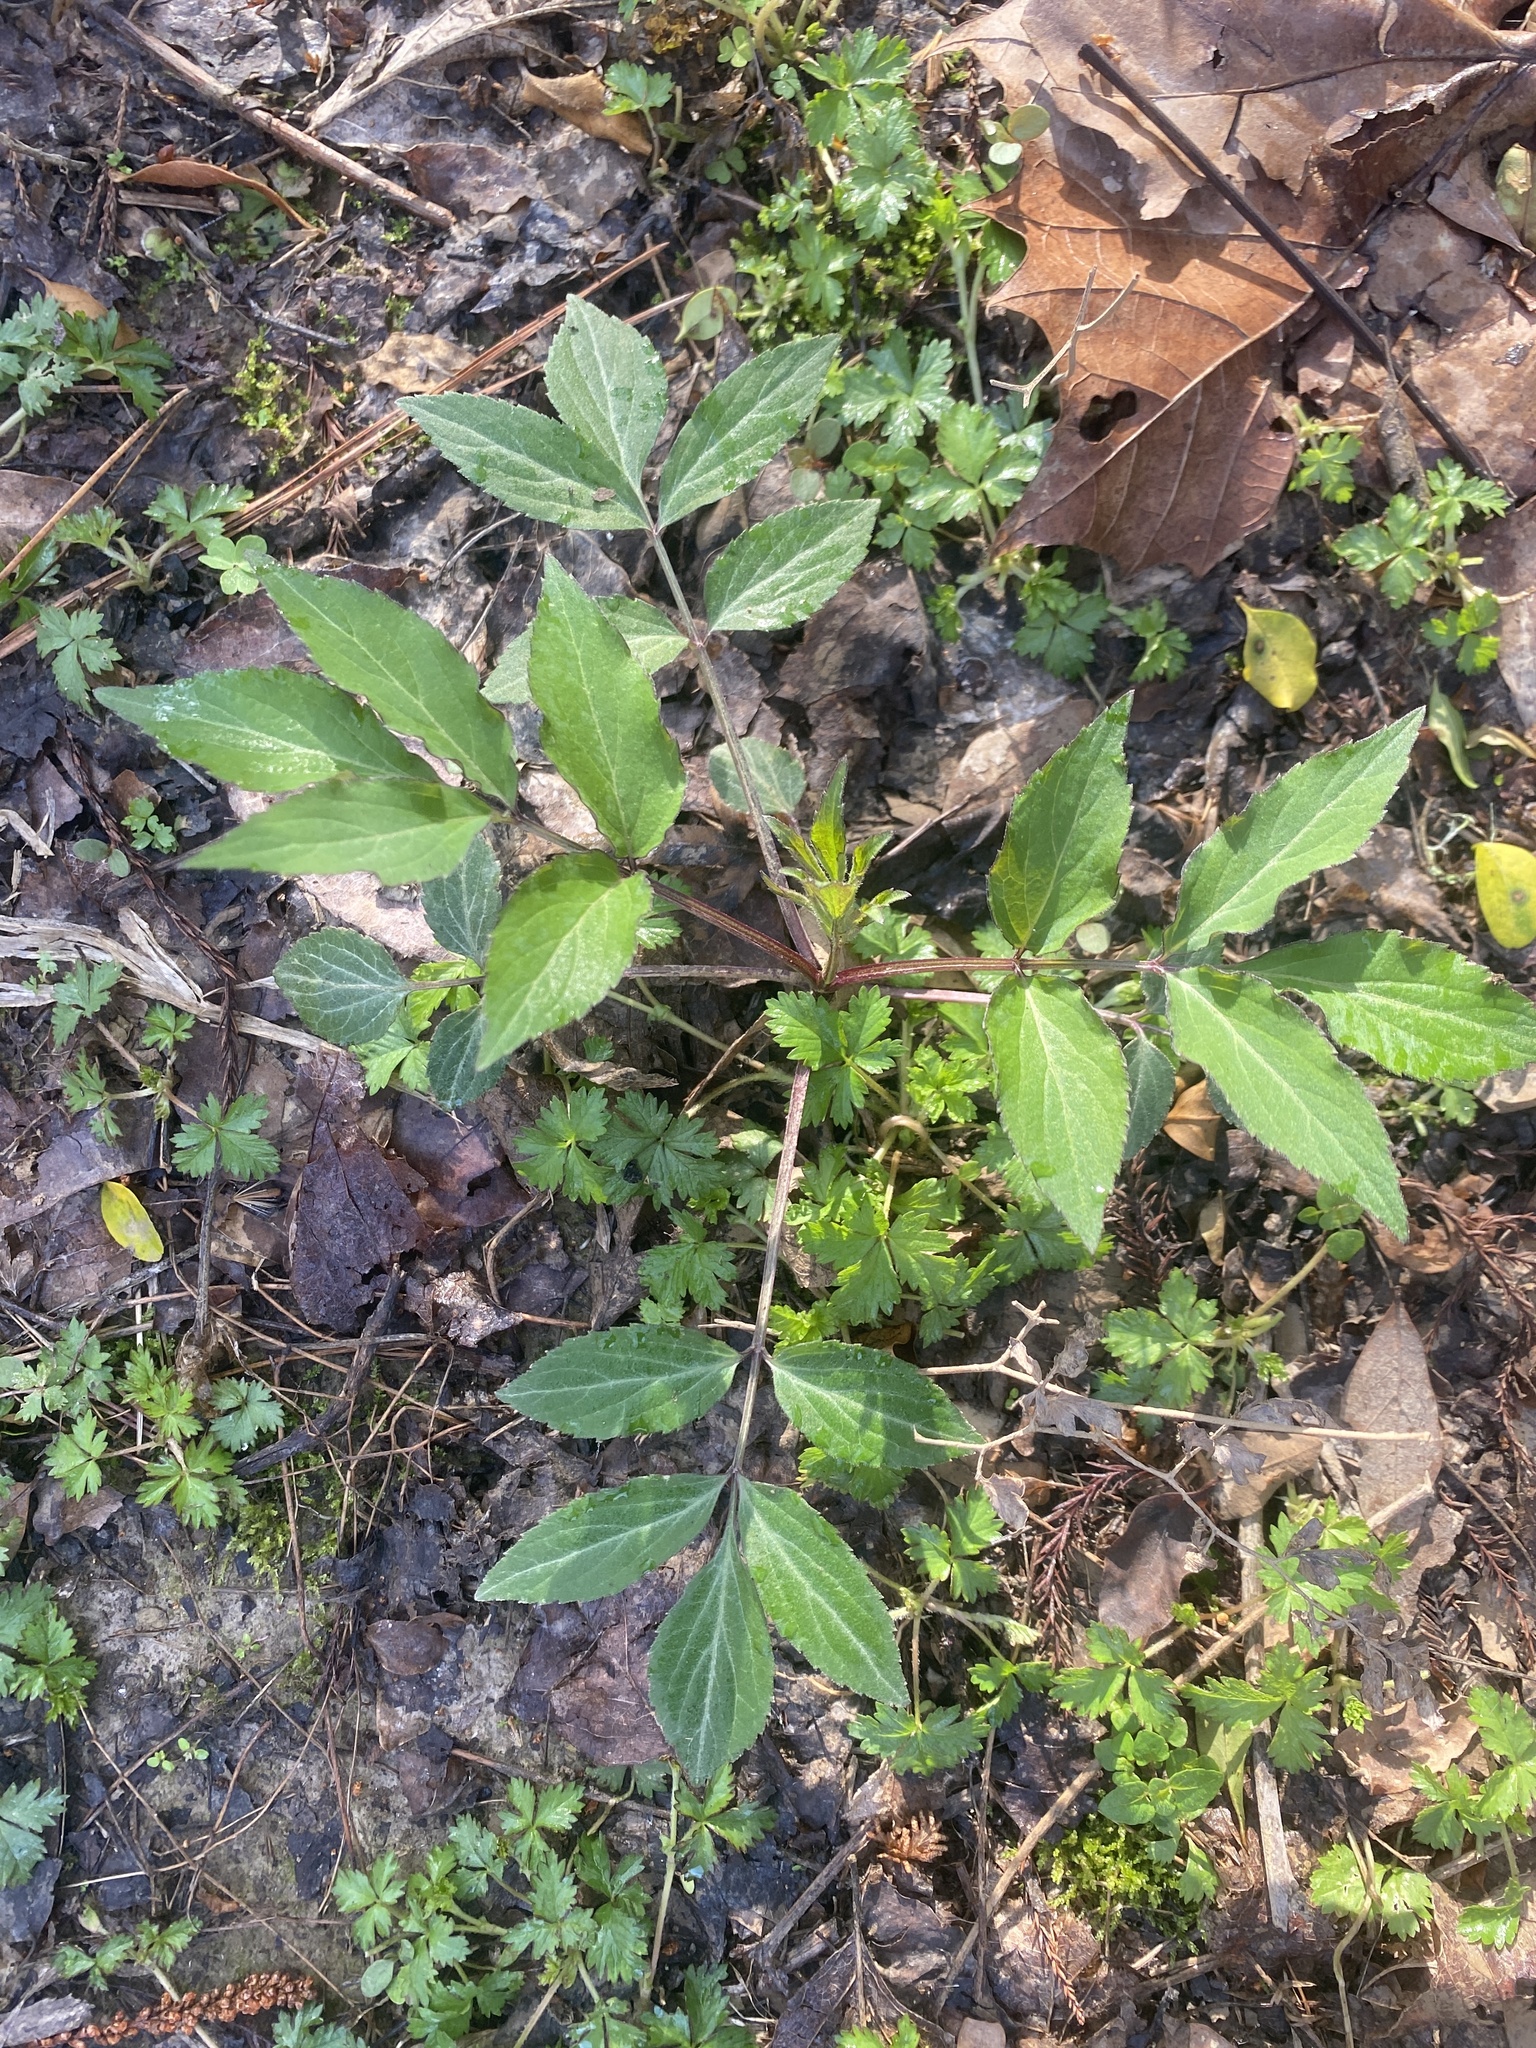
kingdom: Plantae
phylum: Tracheophyta
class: Magnoliopsida
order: Dipsacales
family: Viburnaceae
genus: Sambucus
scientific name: Sambucus canadensis
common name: American elder
